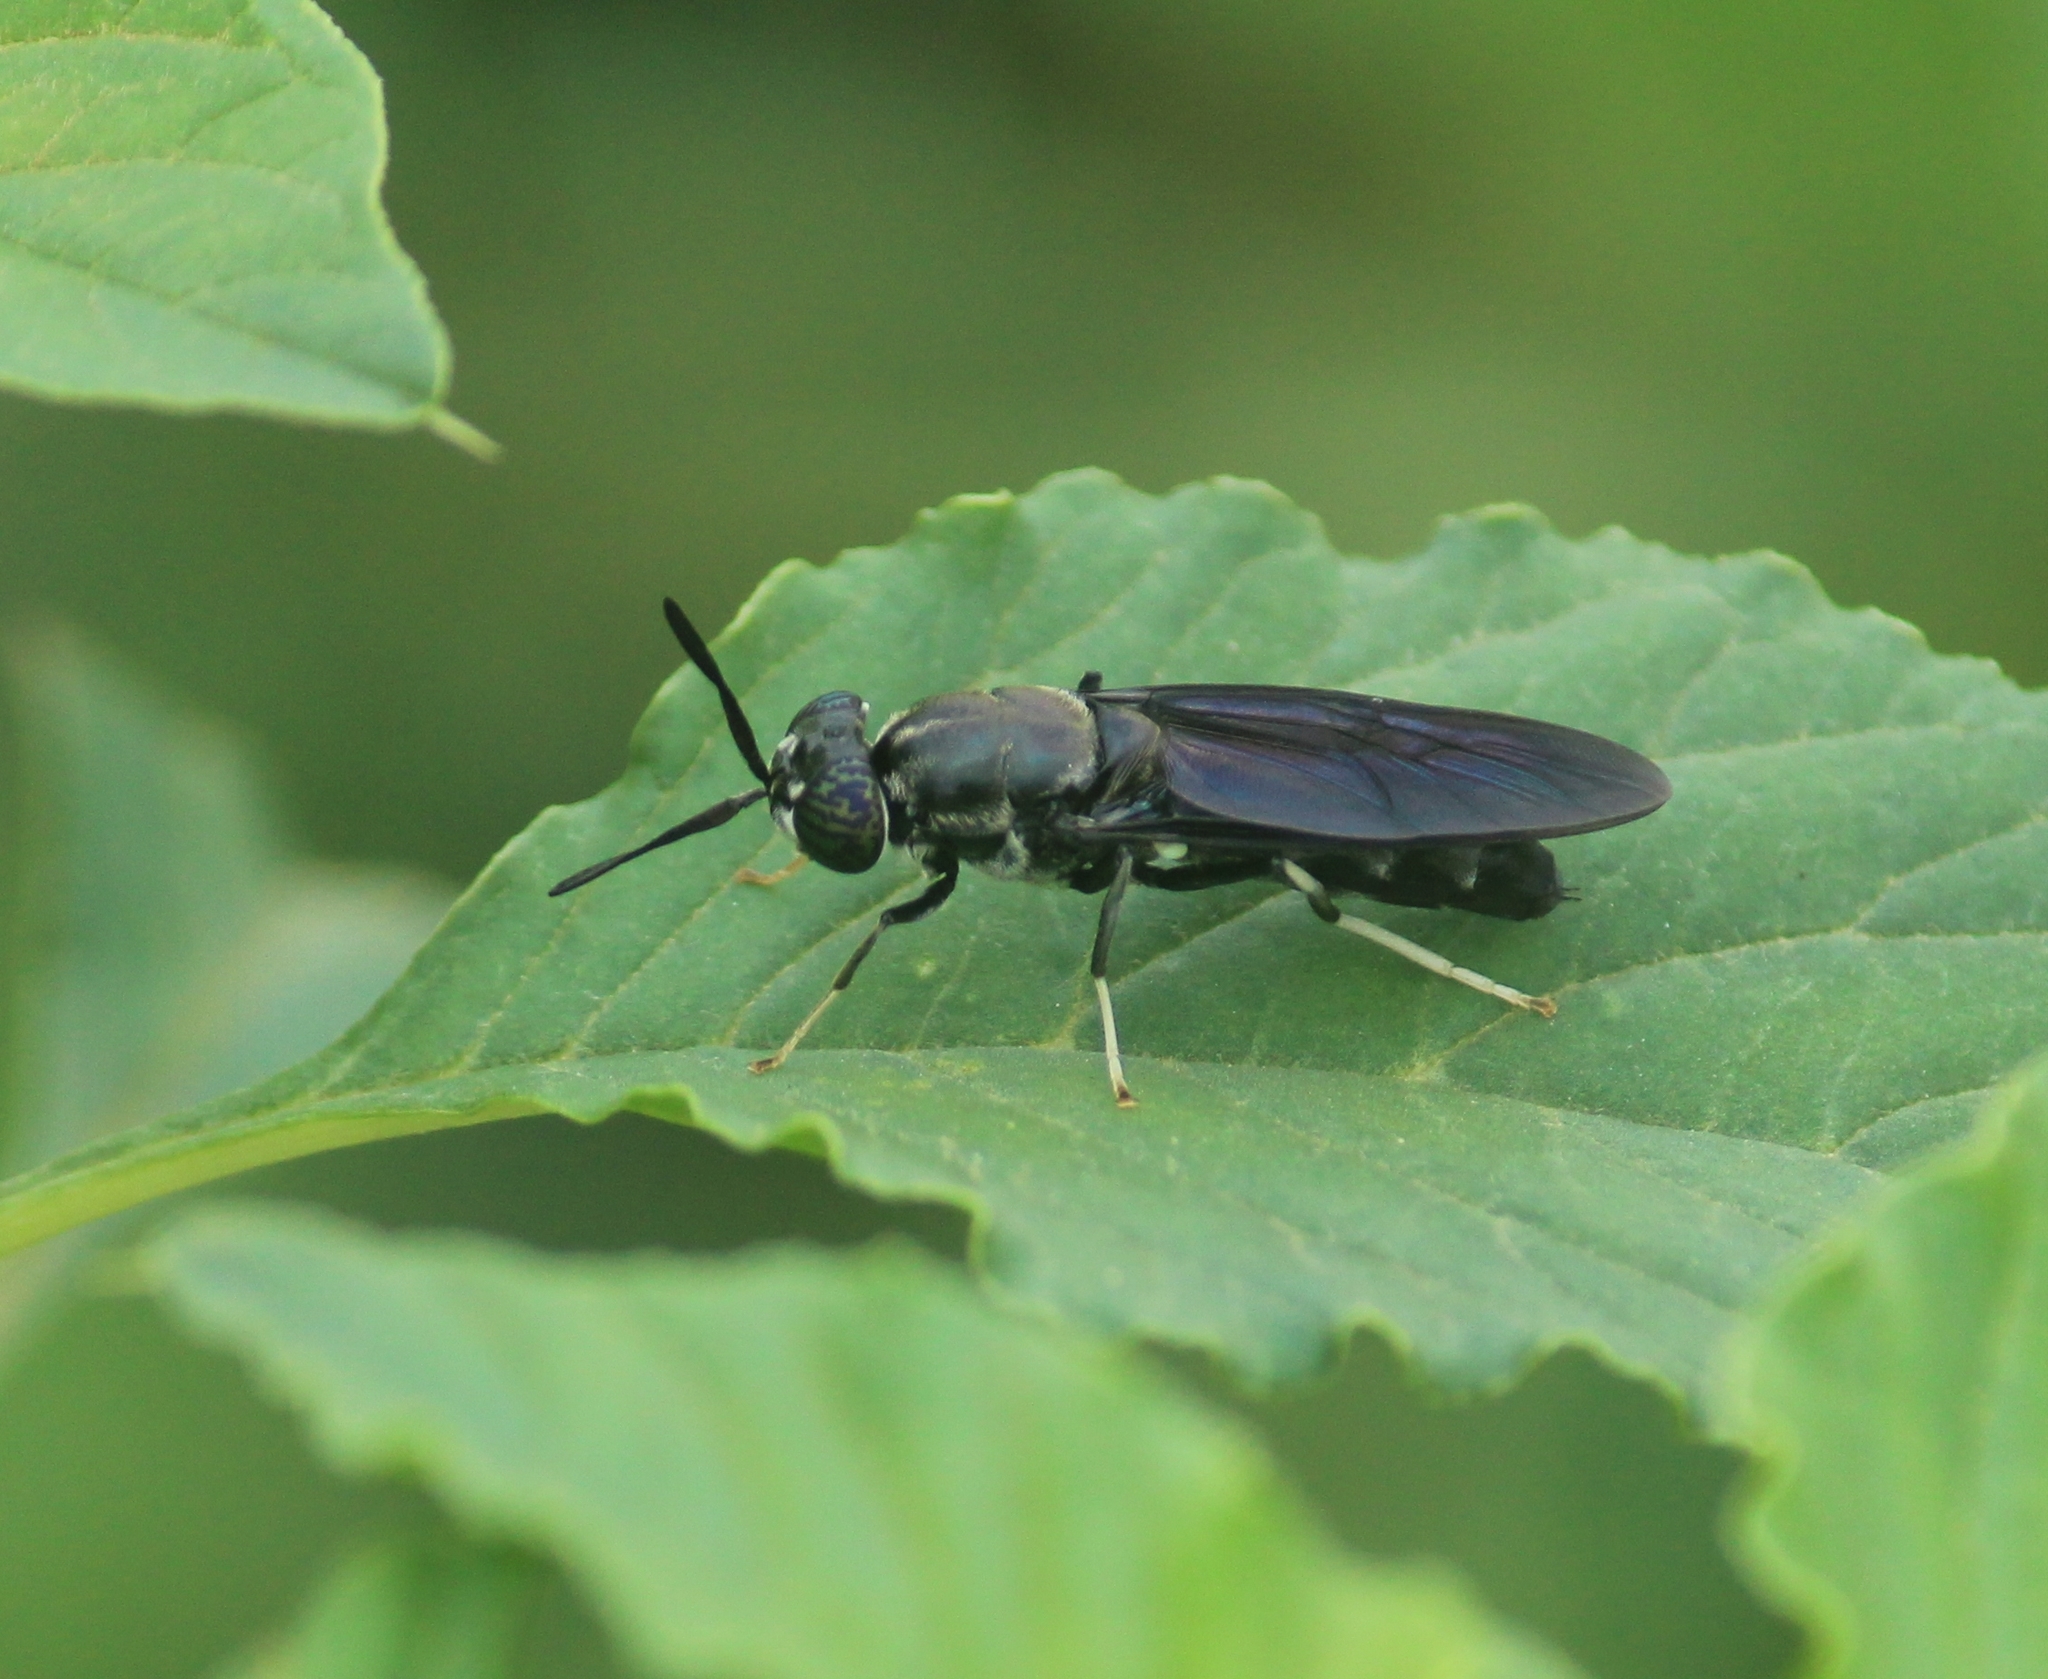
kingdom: Animalia
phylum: Arthropoda
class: Insecta
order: Diptera
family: Stratiomyidae
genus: Hermetia
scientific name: Hermetia illucens
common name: Black soldier fly
